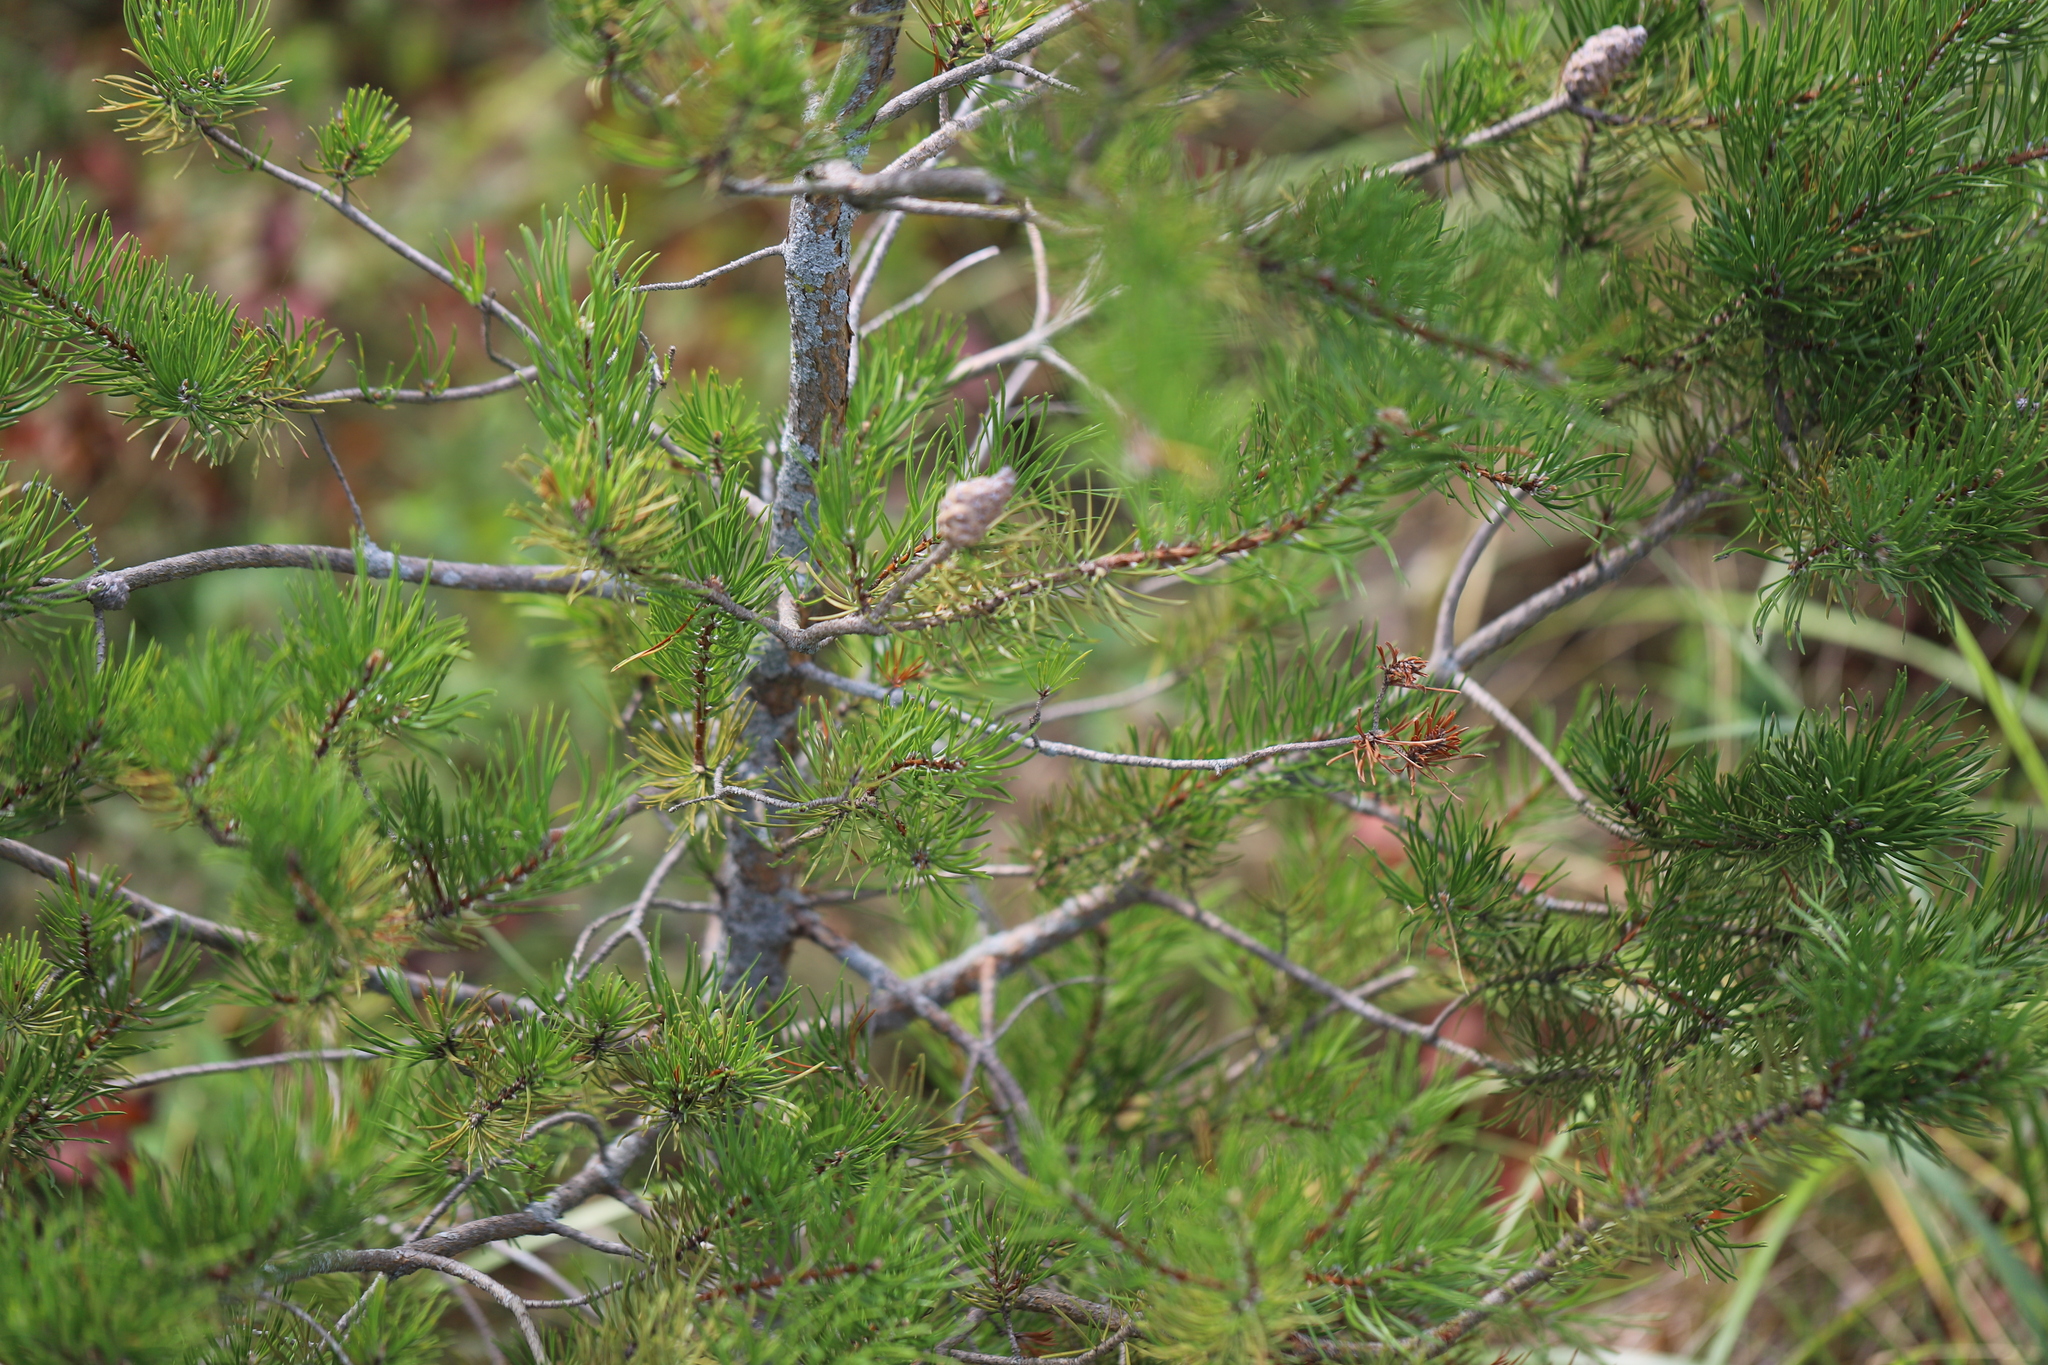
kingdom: Plantae
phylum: Tracheophyta
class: Pinopsida
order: Pinales
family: Pinaceae
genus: Pinus
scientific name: Pinus banksiana
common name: Jack pine
